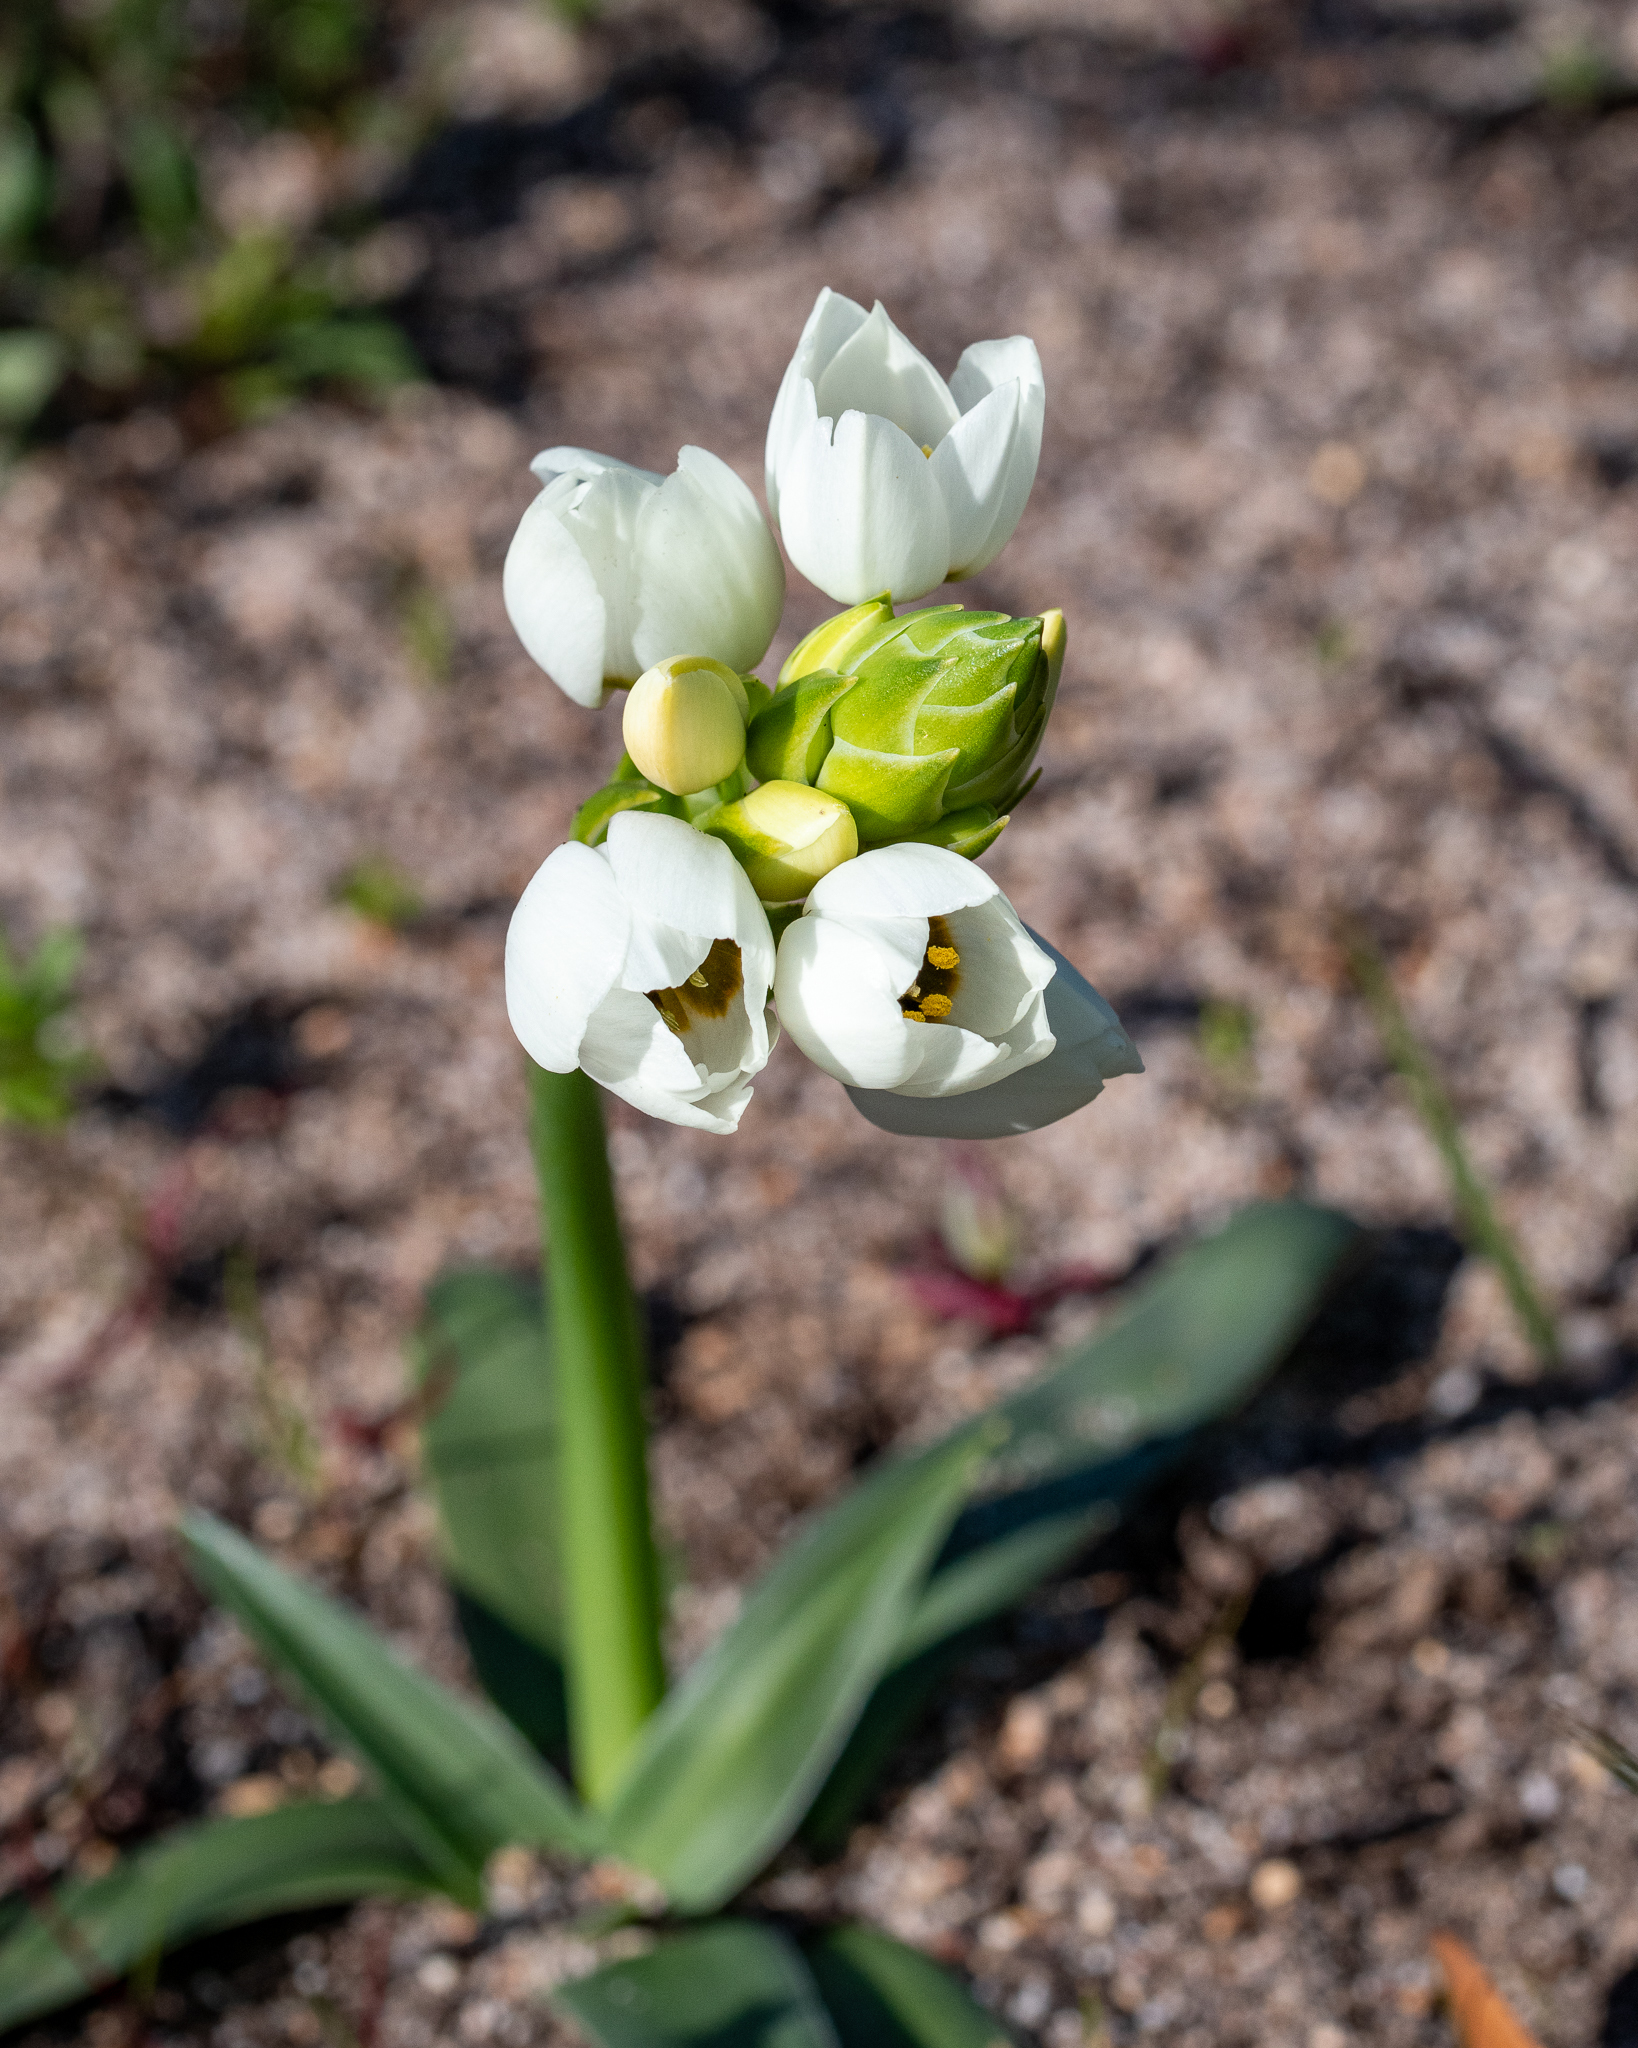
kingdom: Plantae
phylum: Tracheophyta
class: Liliopsida
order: Asparagales
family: Asparagaceae
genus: Ornithogalum
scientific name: Ornithogalum thyrsoides
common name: Chincherinchee
